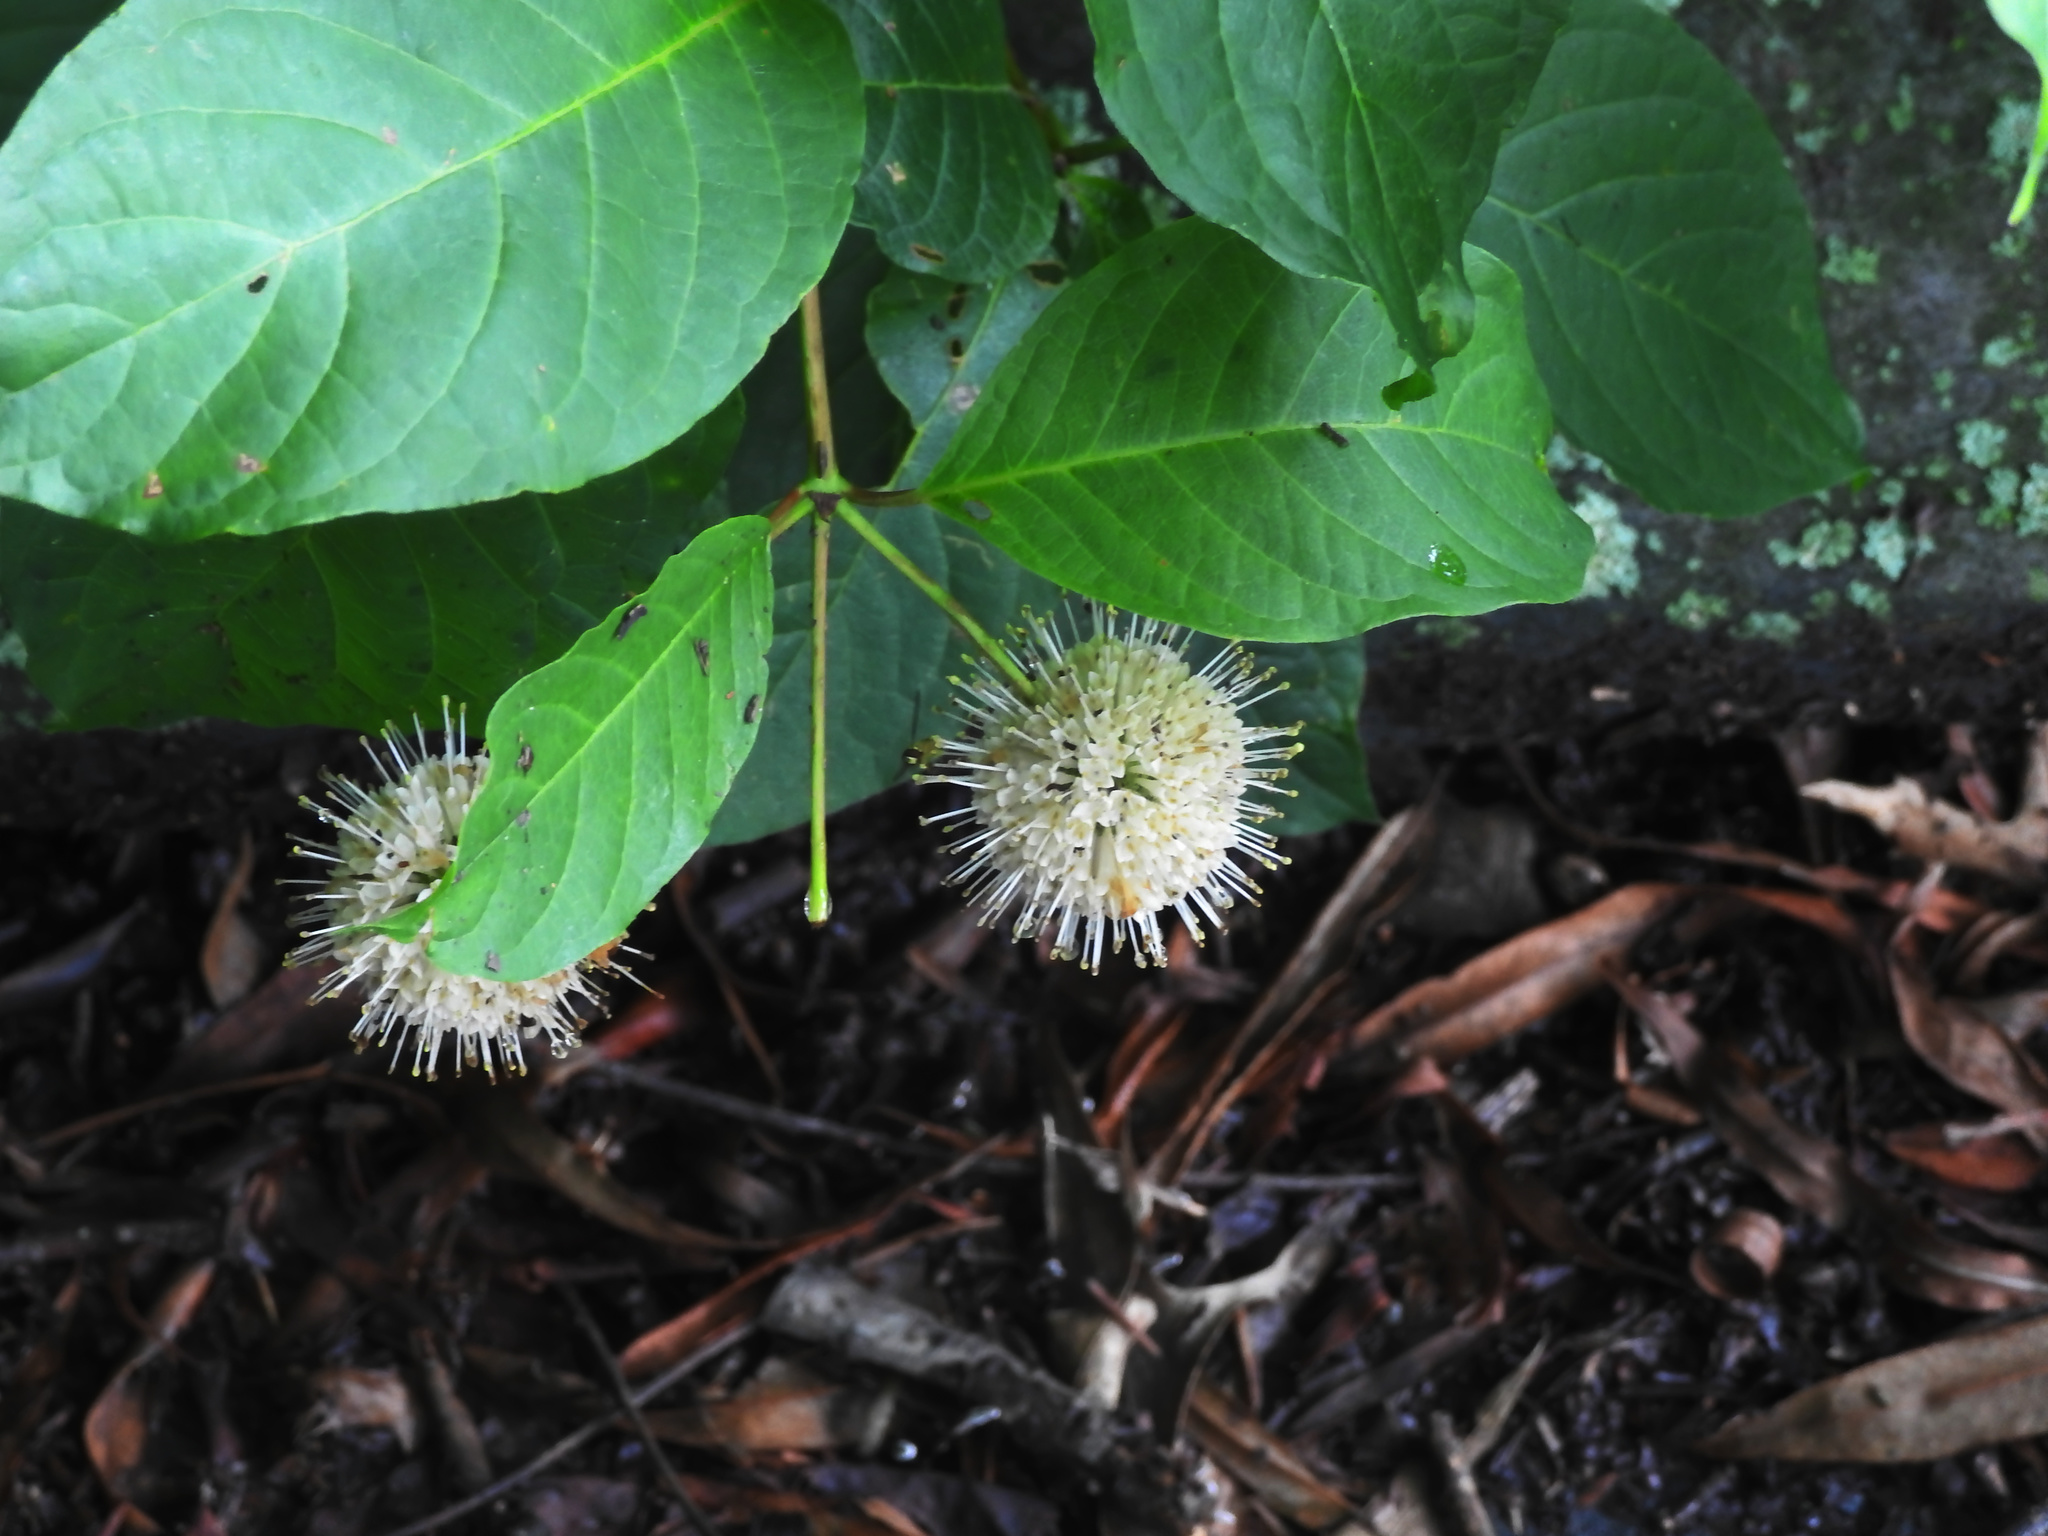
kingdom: Plantae
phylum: Tracheophyta
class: Magnoliopsida
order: Gentianales
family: Rubiaceae
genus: Cephalanthus
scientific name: Cephalanthus occidentalis
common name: Button-willow
